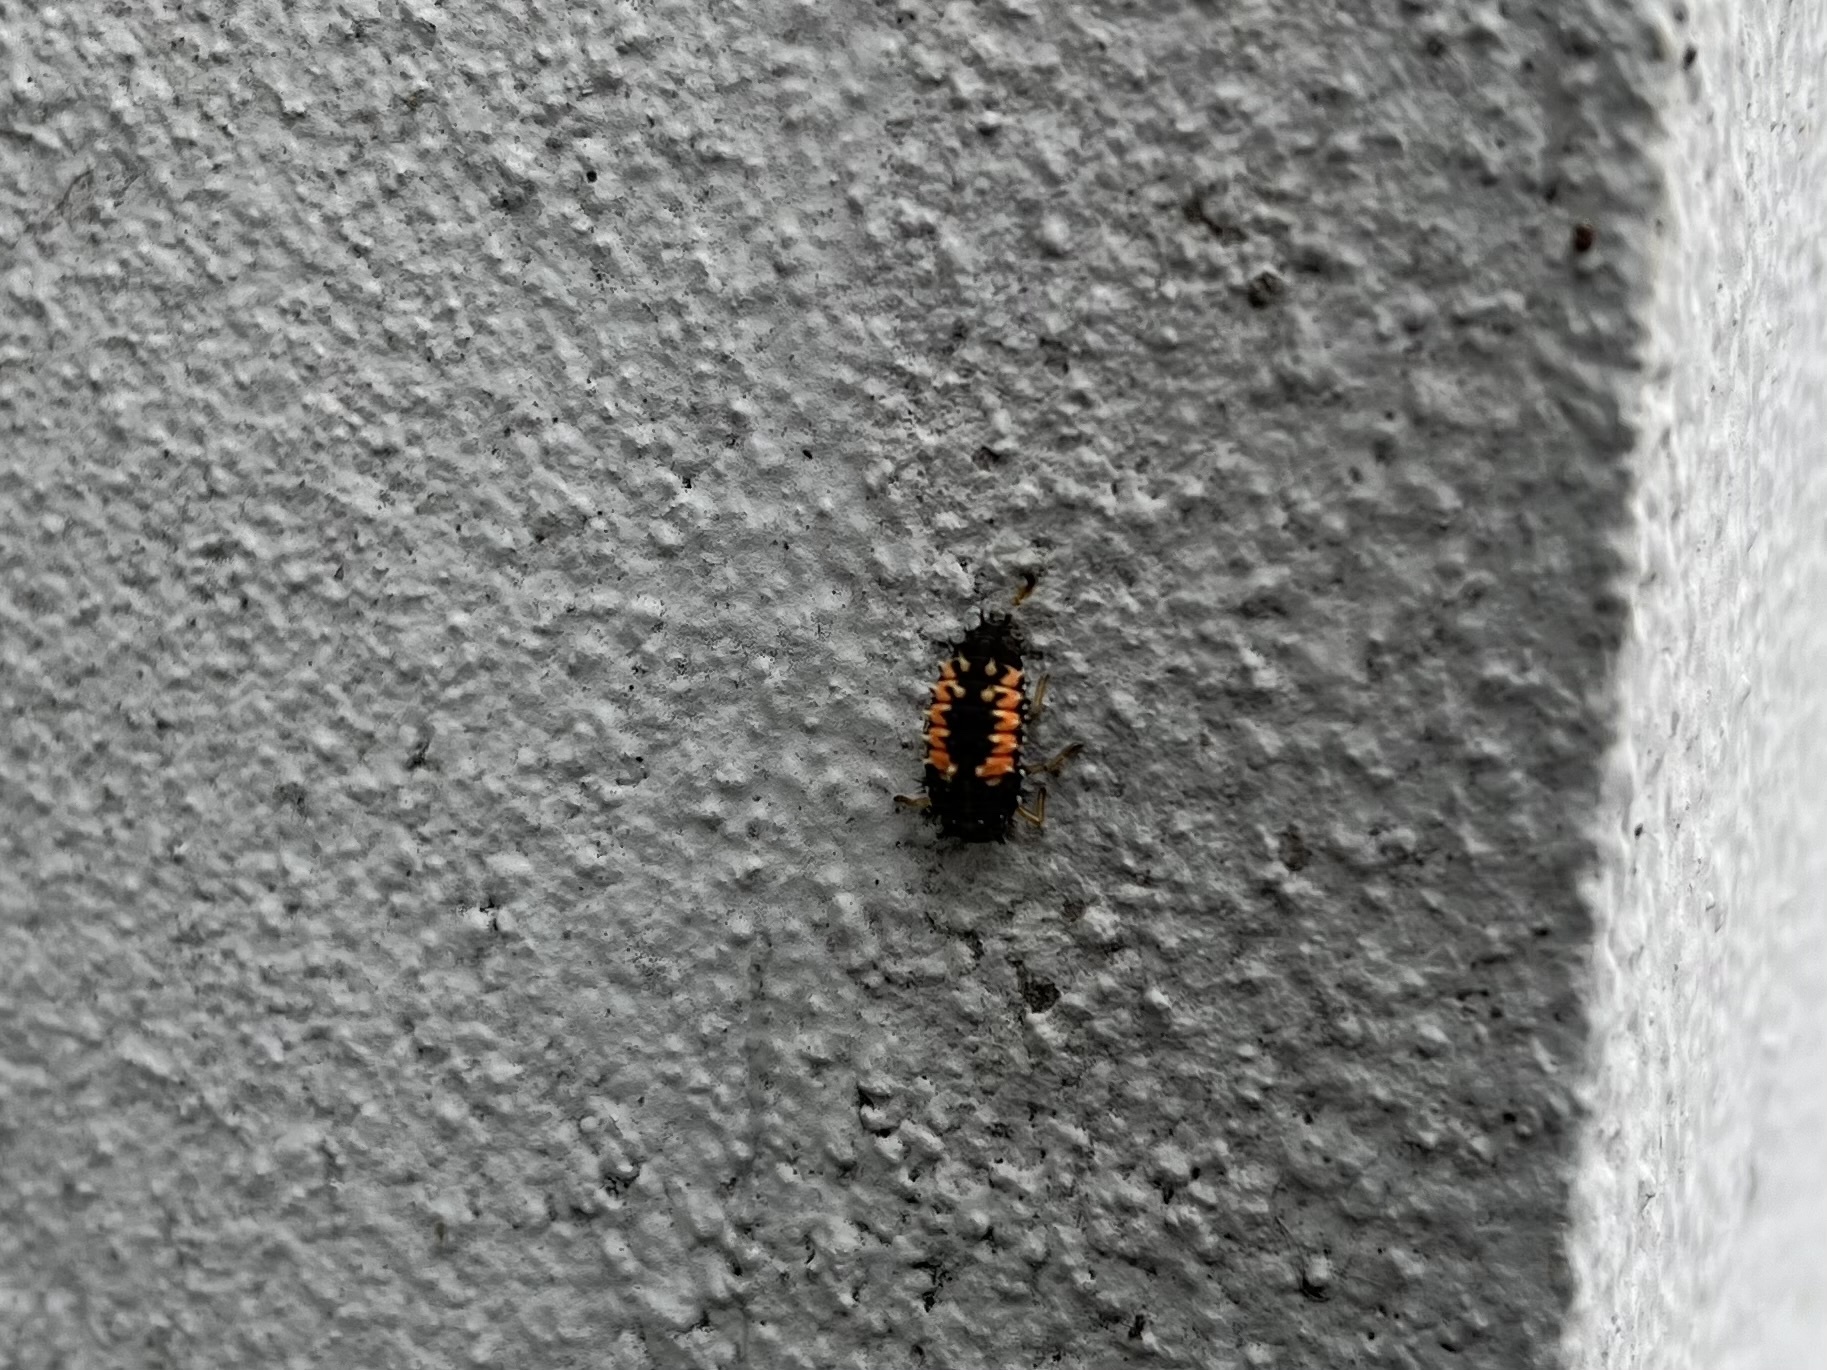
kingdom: Animalia
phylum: Arthropoda
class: Insecta
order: Coleoptera
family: Coccinellidae
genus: Harmonia
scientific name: Harmonia axyridis
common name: Harlequin ladybird
